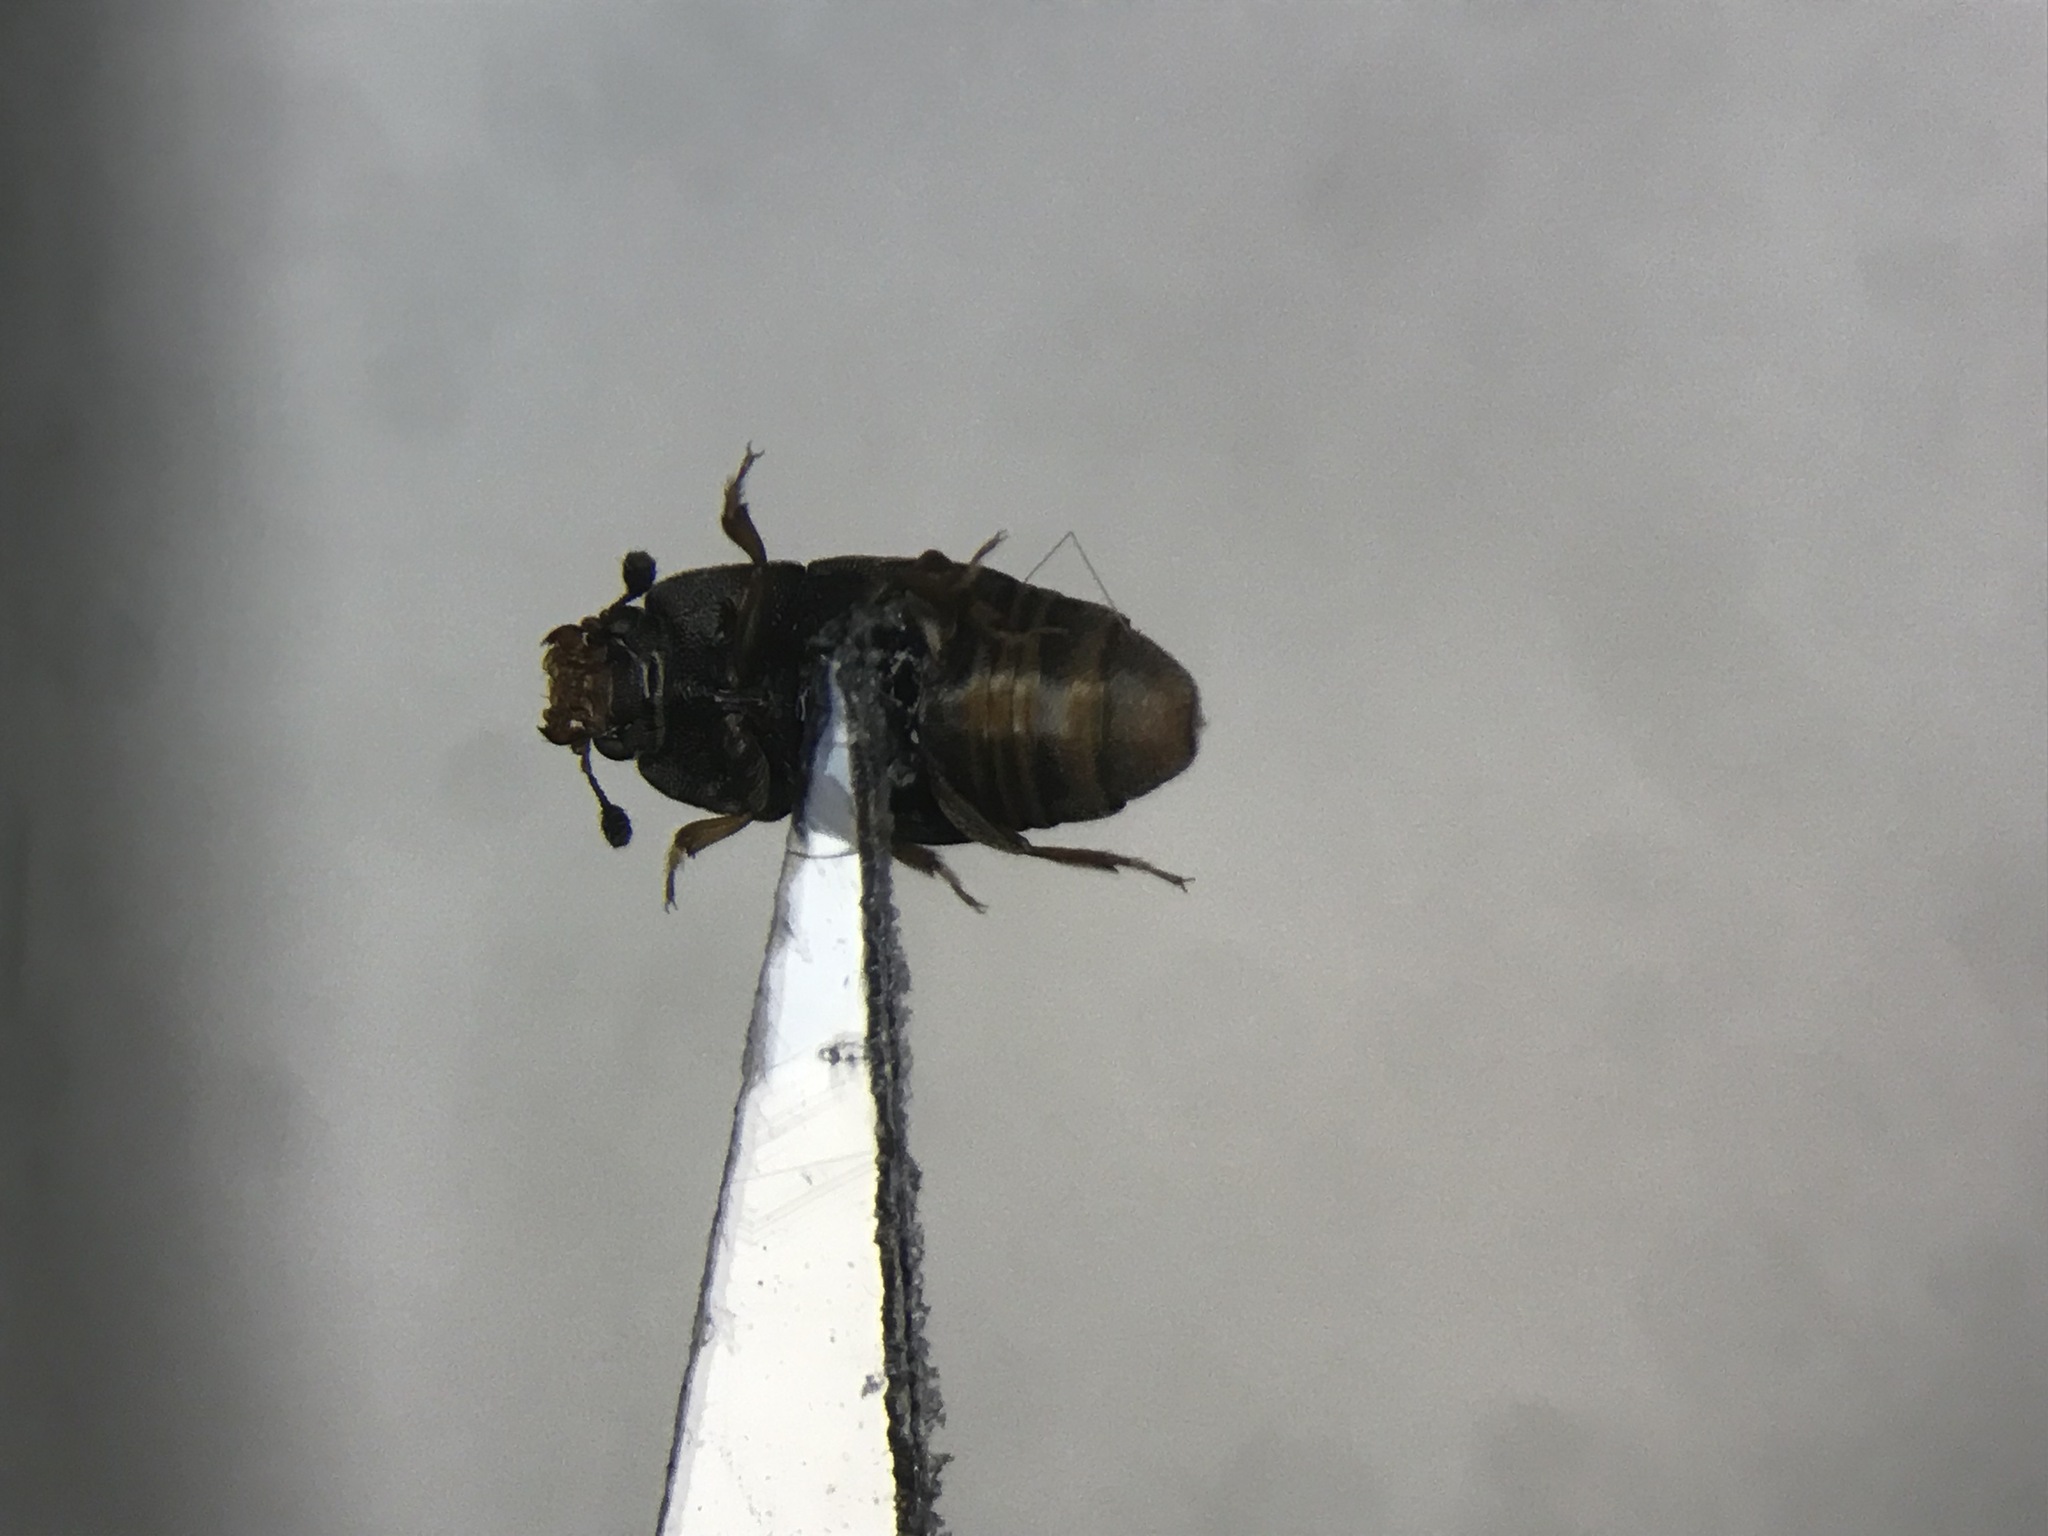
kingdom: Animalia
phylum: Arthropoda
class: Insecta
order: Coleoptera
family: Nitidulidae
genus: Carpophilus
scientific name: Carpophilus hemipterus
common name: Dried fruit beetle
